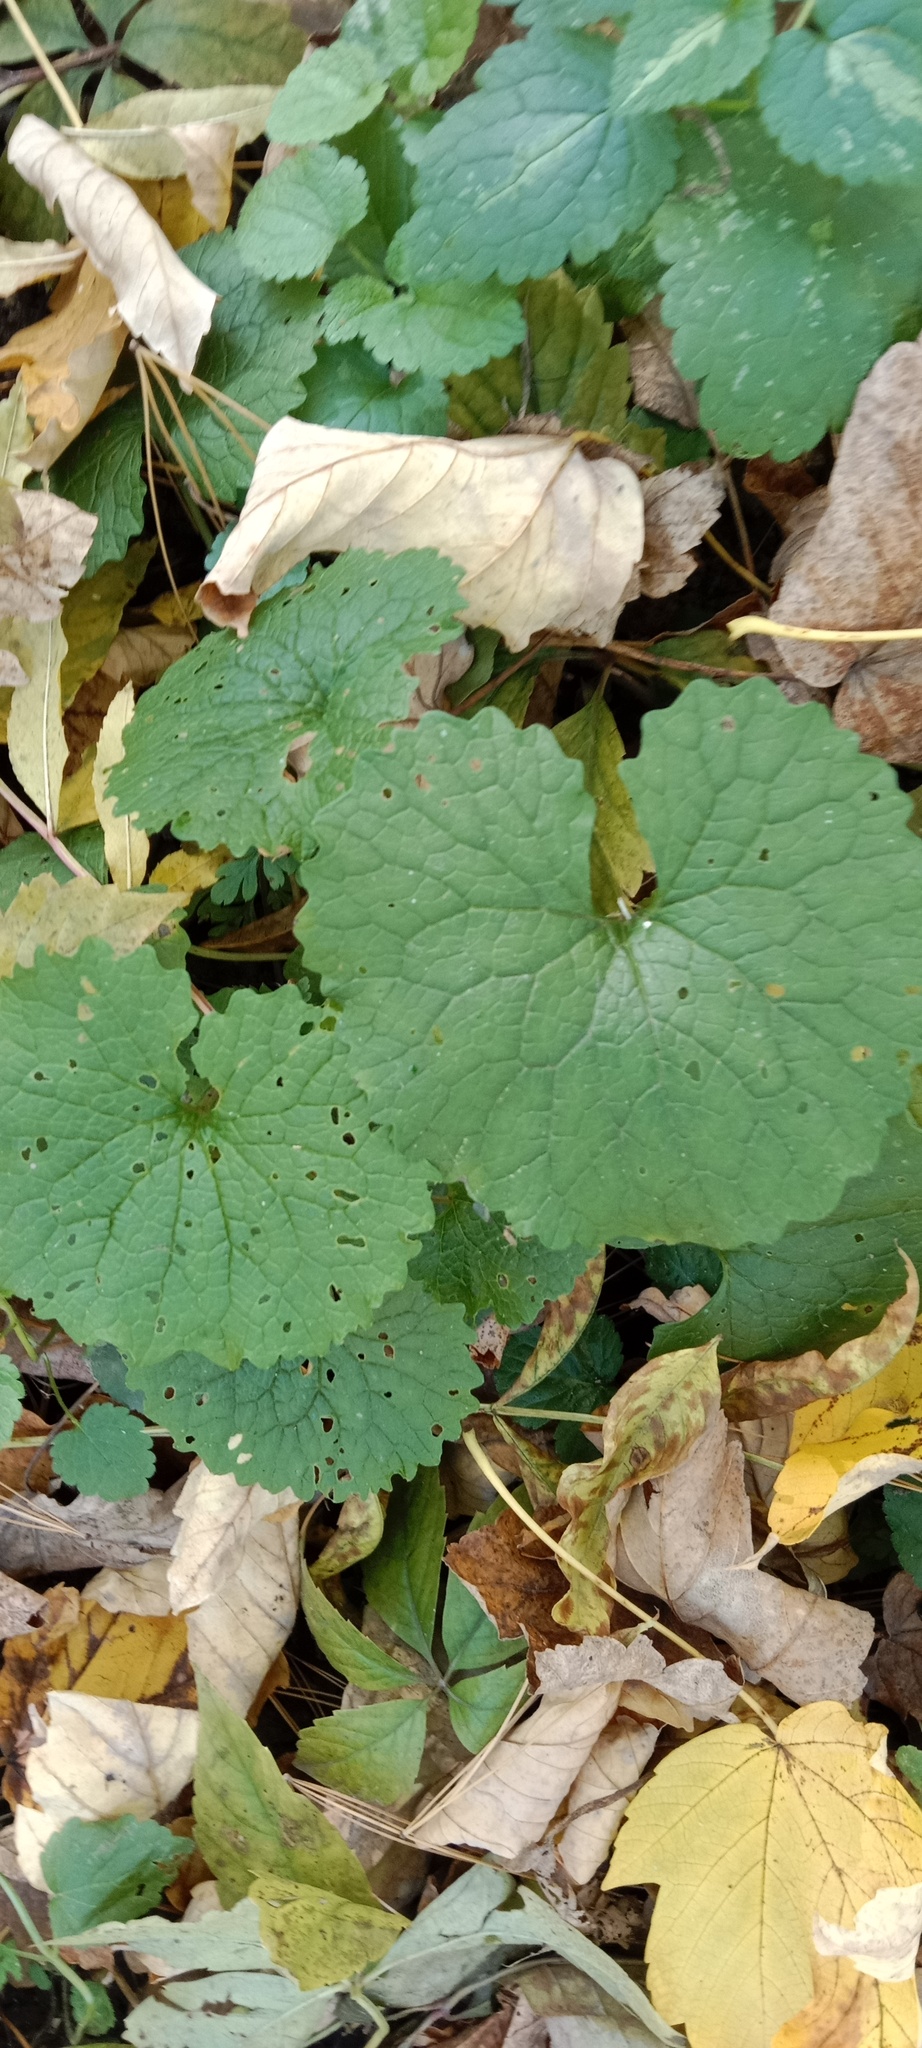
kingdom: Plantae
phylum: Tracheophyta
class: Magnoliopsida
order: Brassicales
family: Brassicaceae
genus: Alliaria
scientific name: Alliaria petiolata
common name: Garlic mustard
